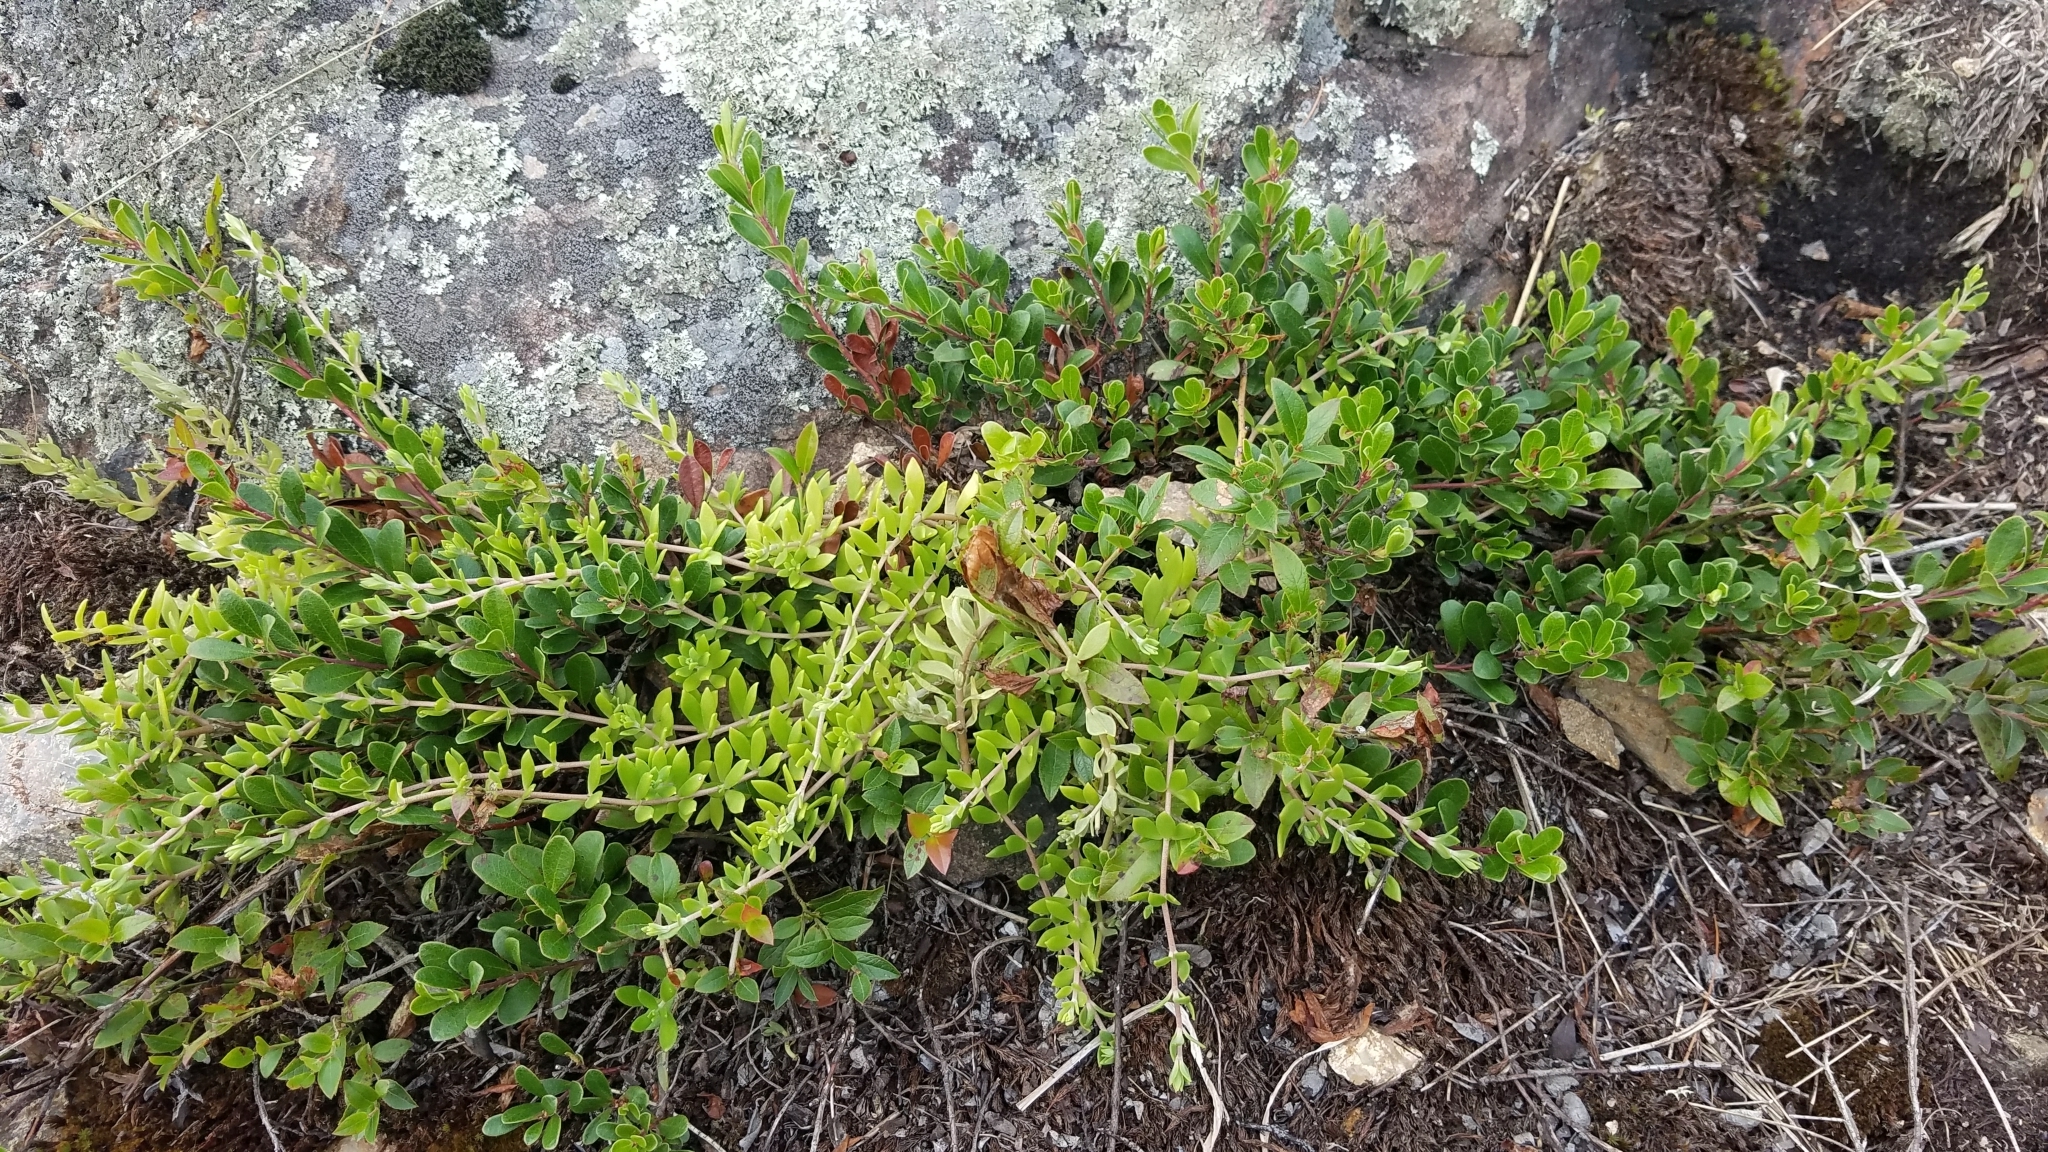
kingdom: Plantae
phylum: Tracheophyta
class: Magnoliopsida
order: Ericales
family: Ericaceae
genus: Arctostaphylos
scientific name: Arctostaphylos uva-ursi
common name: Bearberry
